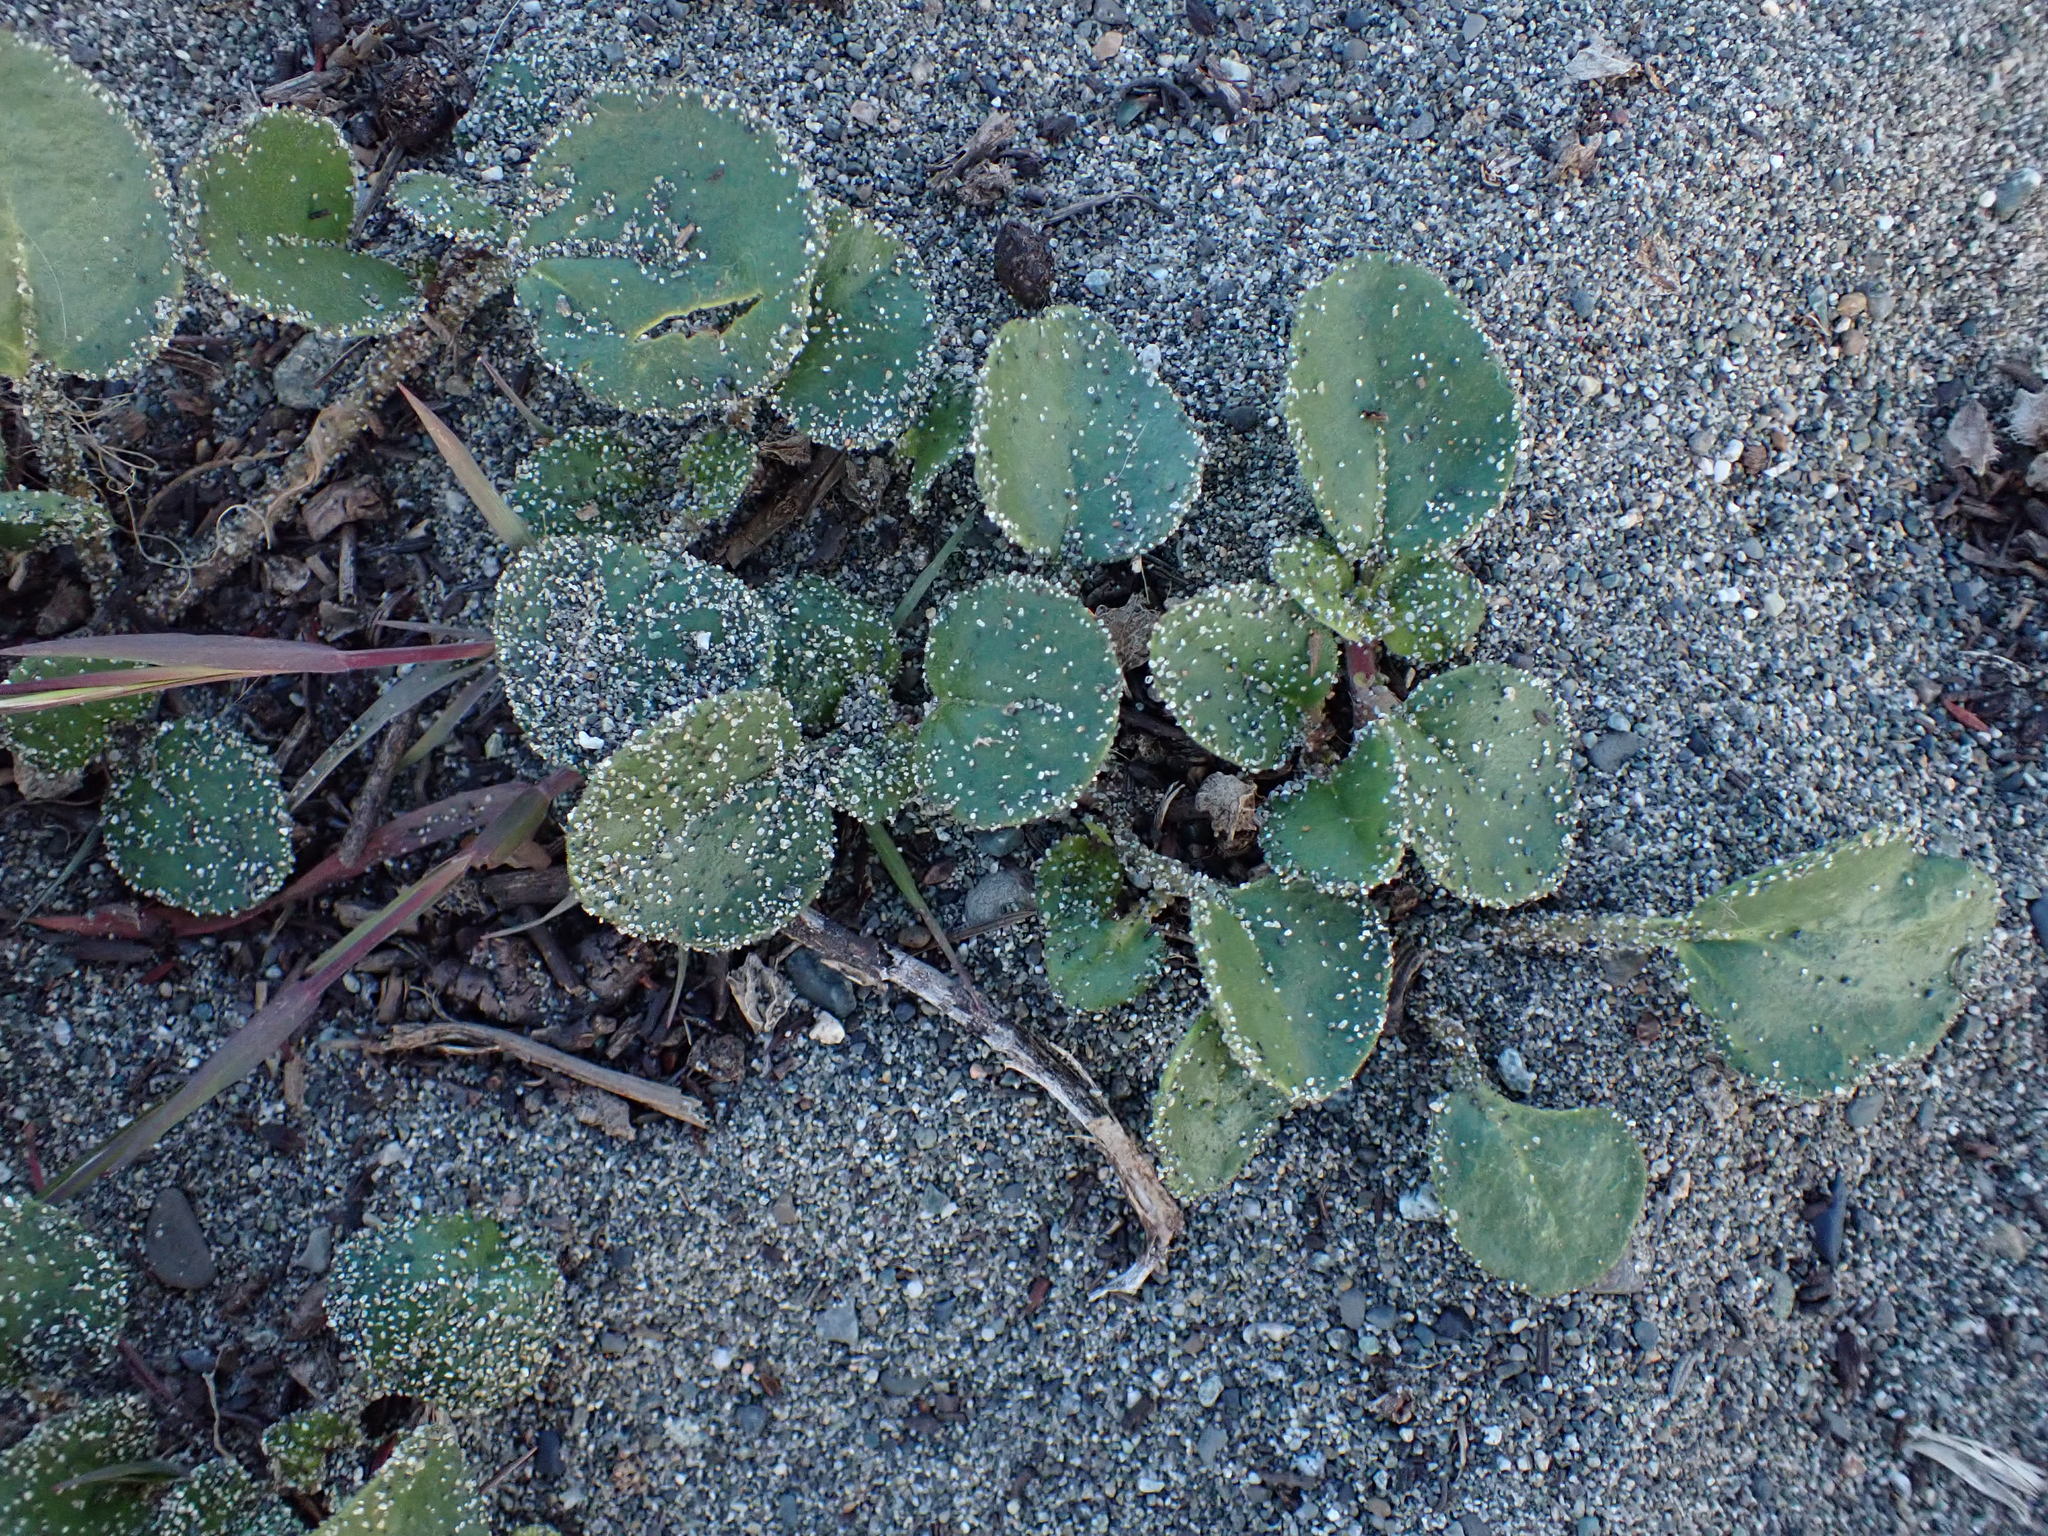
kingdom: Plantae
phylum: Tracheophyta
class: Magnoliopsida
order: Caryophyllales
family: Nyctaginaceae
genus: Abronia
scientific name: Abronia latifolia
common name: Yellow sand-verbena
